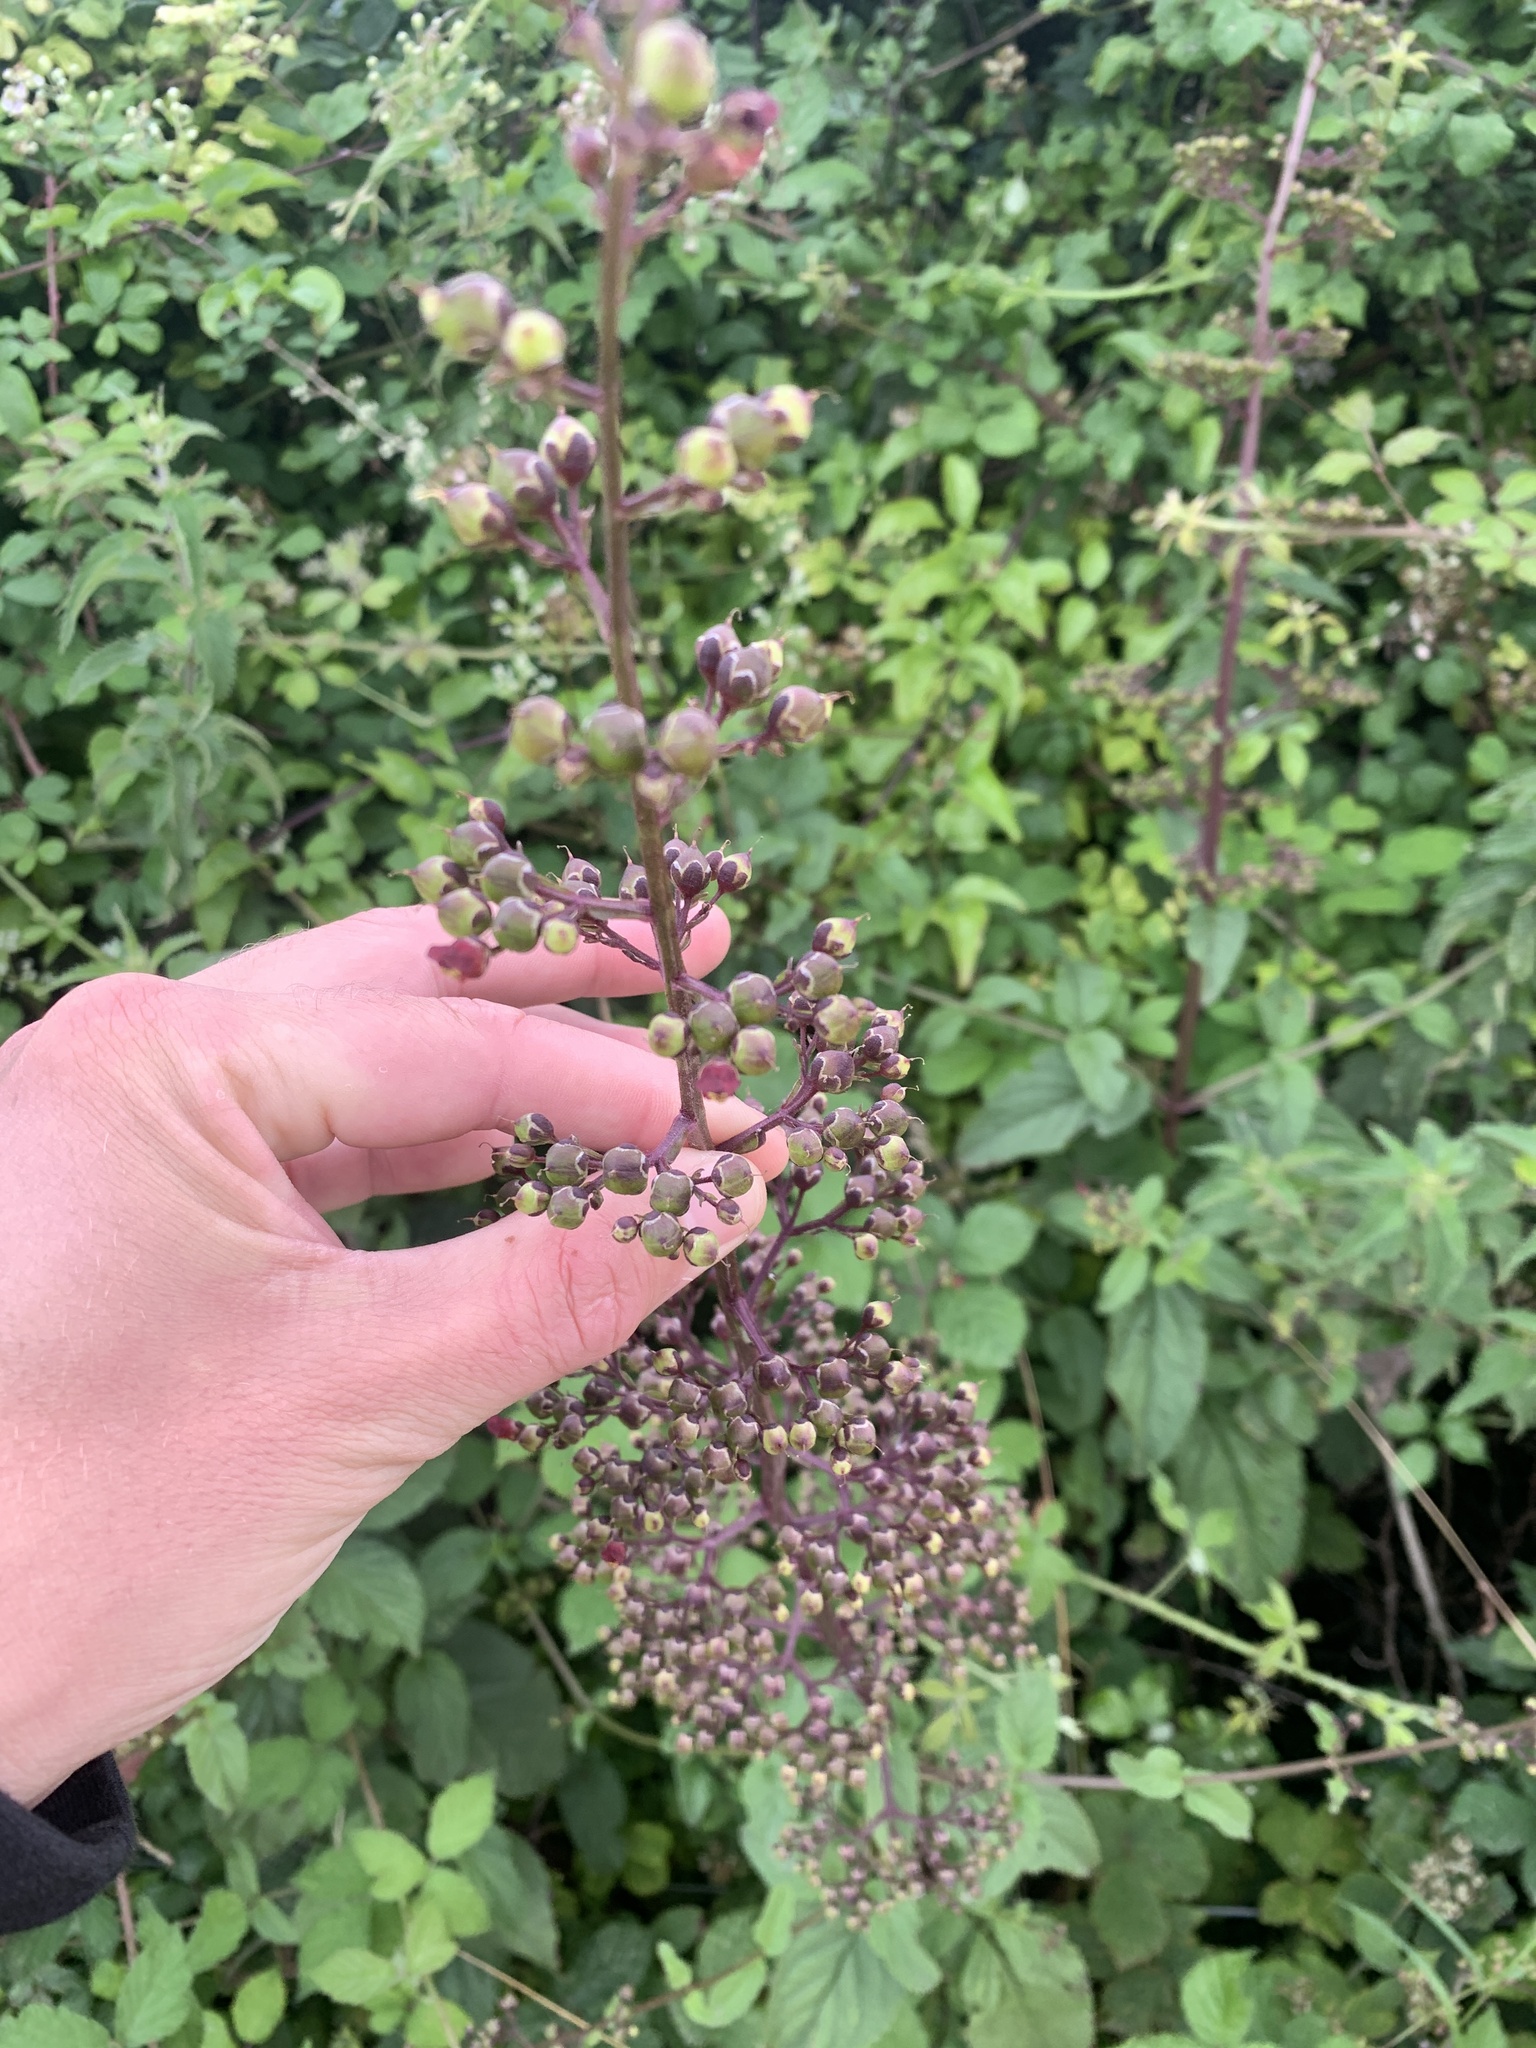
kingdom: Plantae
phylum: Tracheophyta
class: Magnoliopsida
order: Lamiales
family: Scrophulariaceae
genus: Scrophularia
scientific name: Scrophularia nodosa
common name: Common figwort
